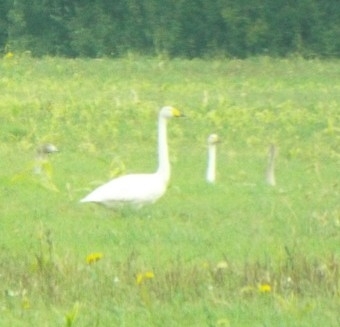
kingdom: Animalia
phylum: Chordata
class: Aves
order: Anseriformes
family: Anatidae
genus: Cygnus
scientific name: Cygnus cygnus
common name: Whooper swan
